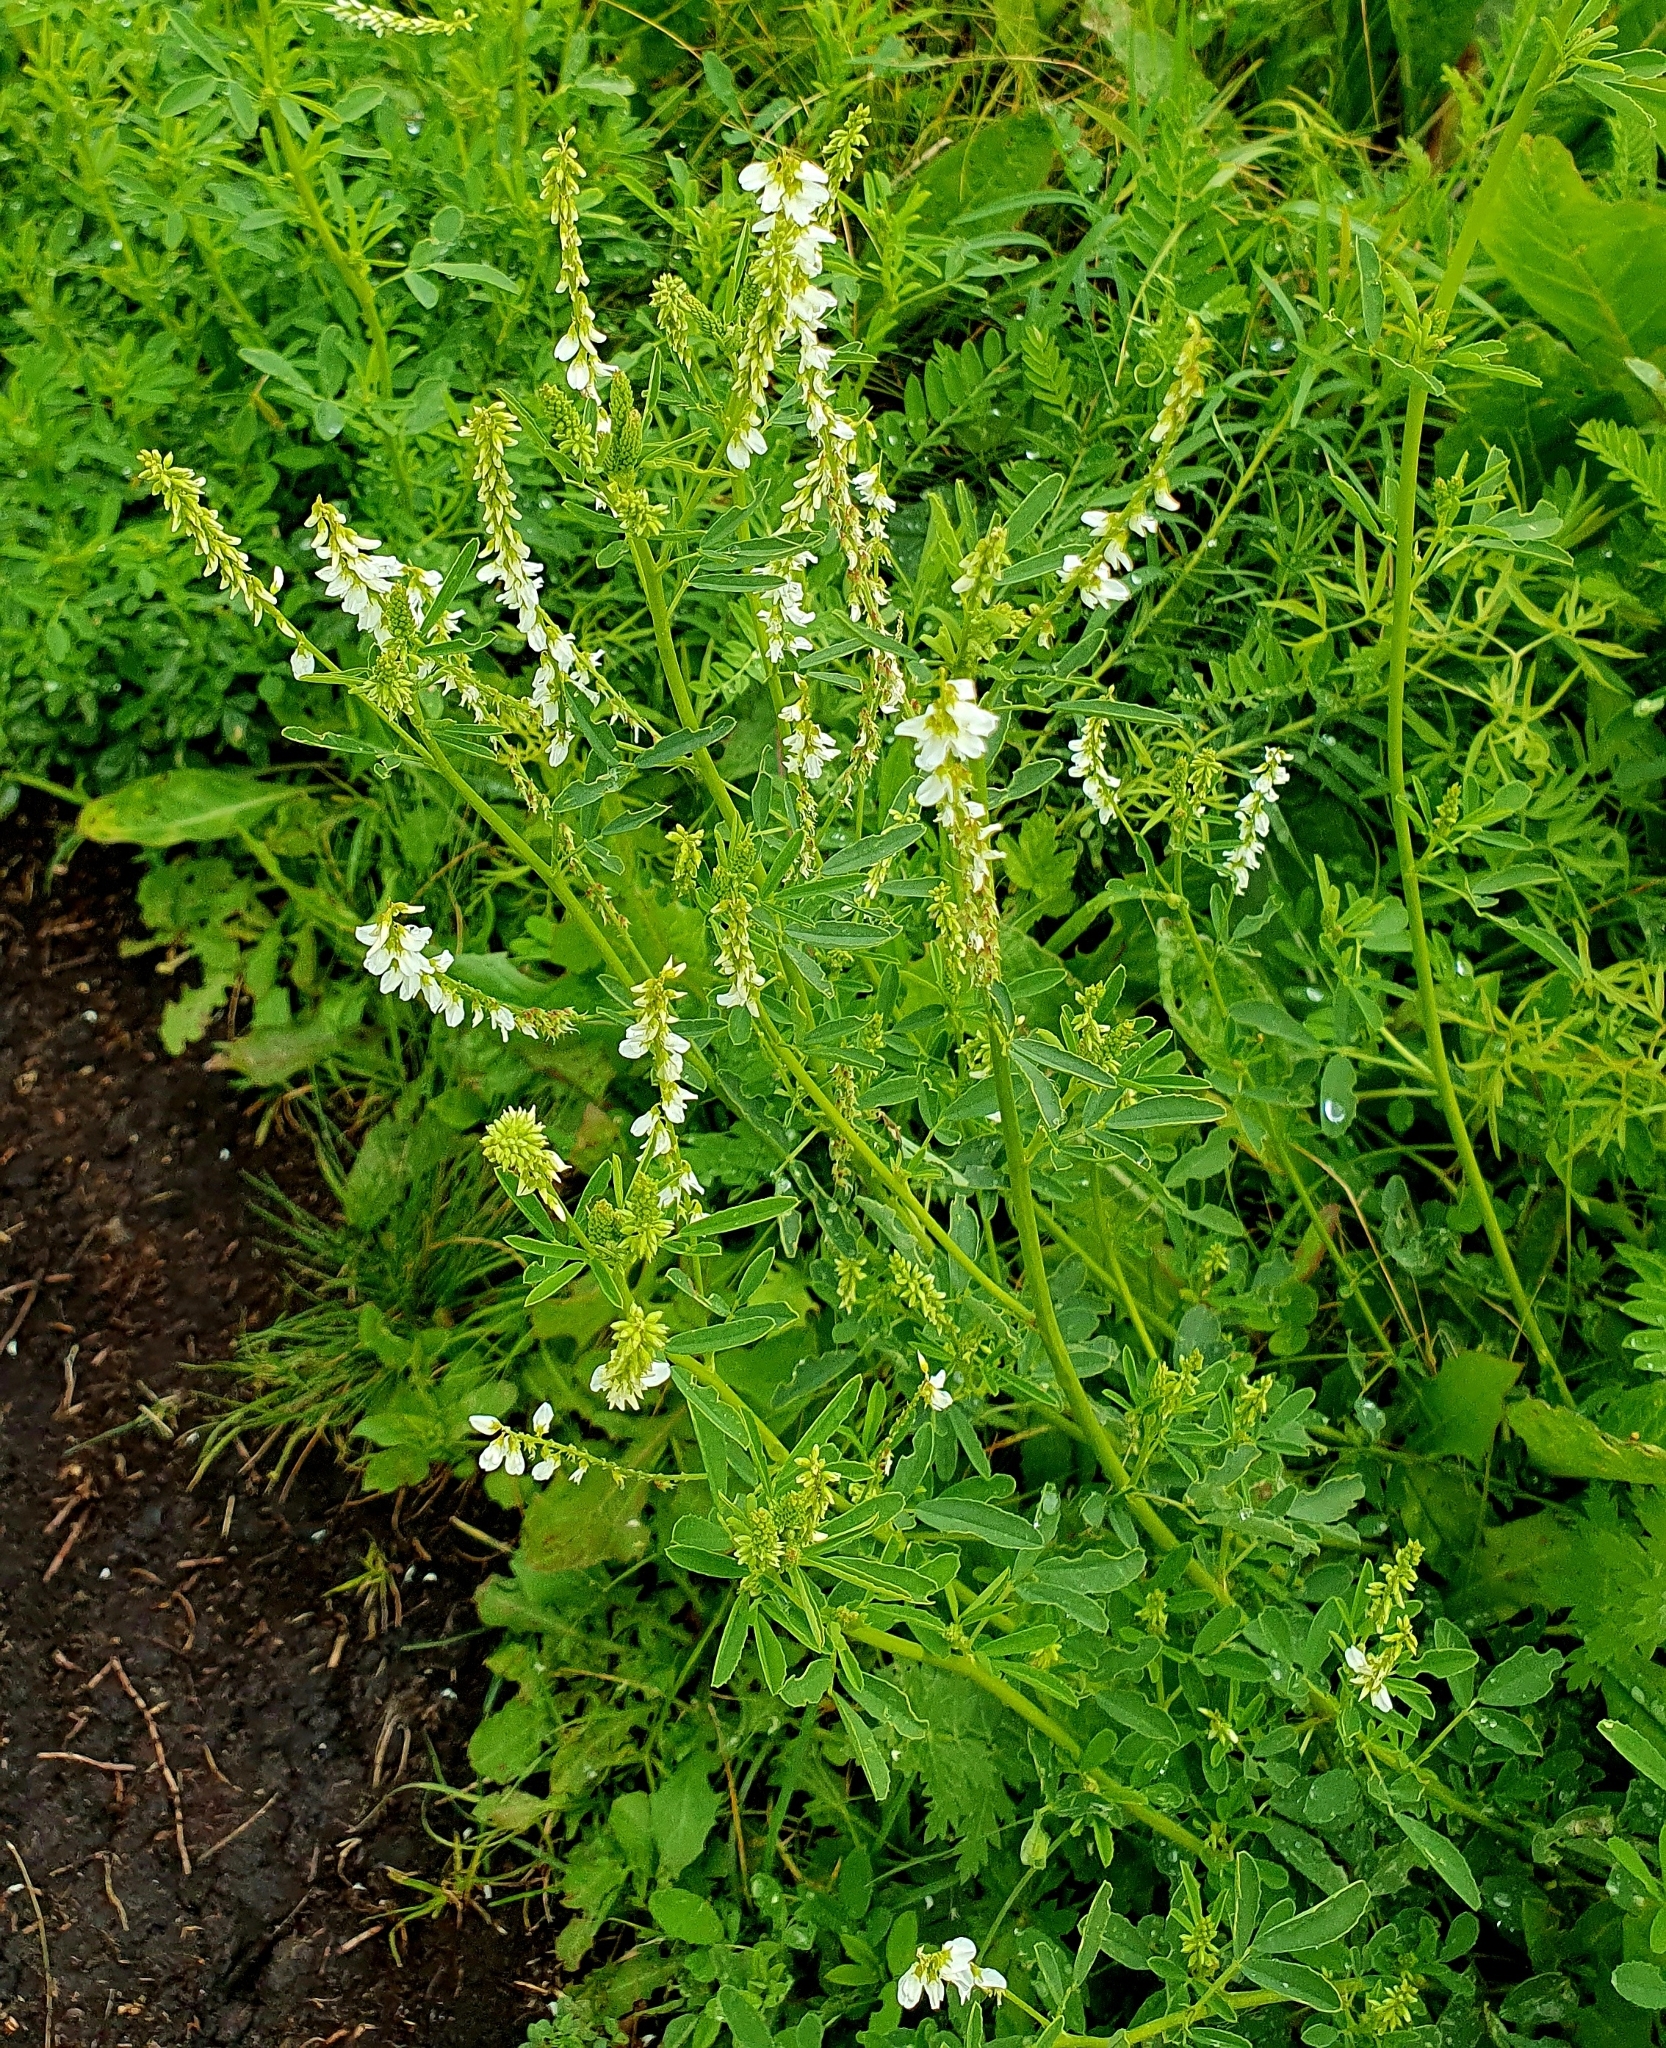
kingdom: Plantae
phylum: Tracheophyta
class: Magnoliopsida
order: Fabales
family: Fabaceae
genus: Melilotus
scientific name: Melilotus albus
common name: White melilot
